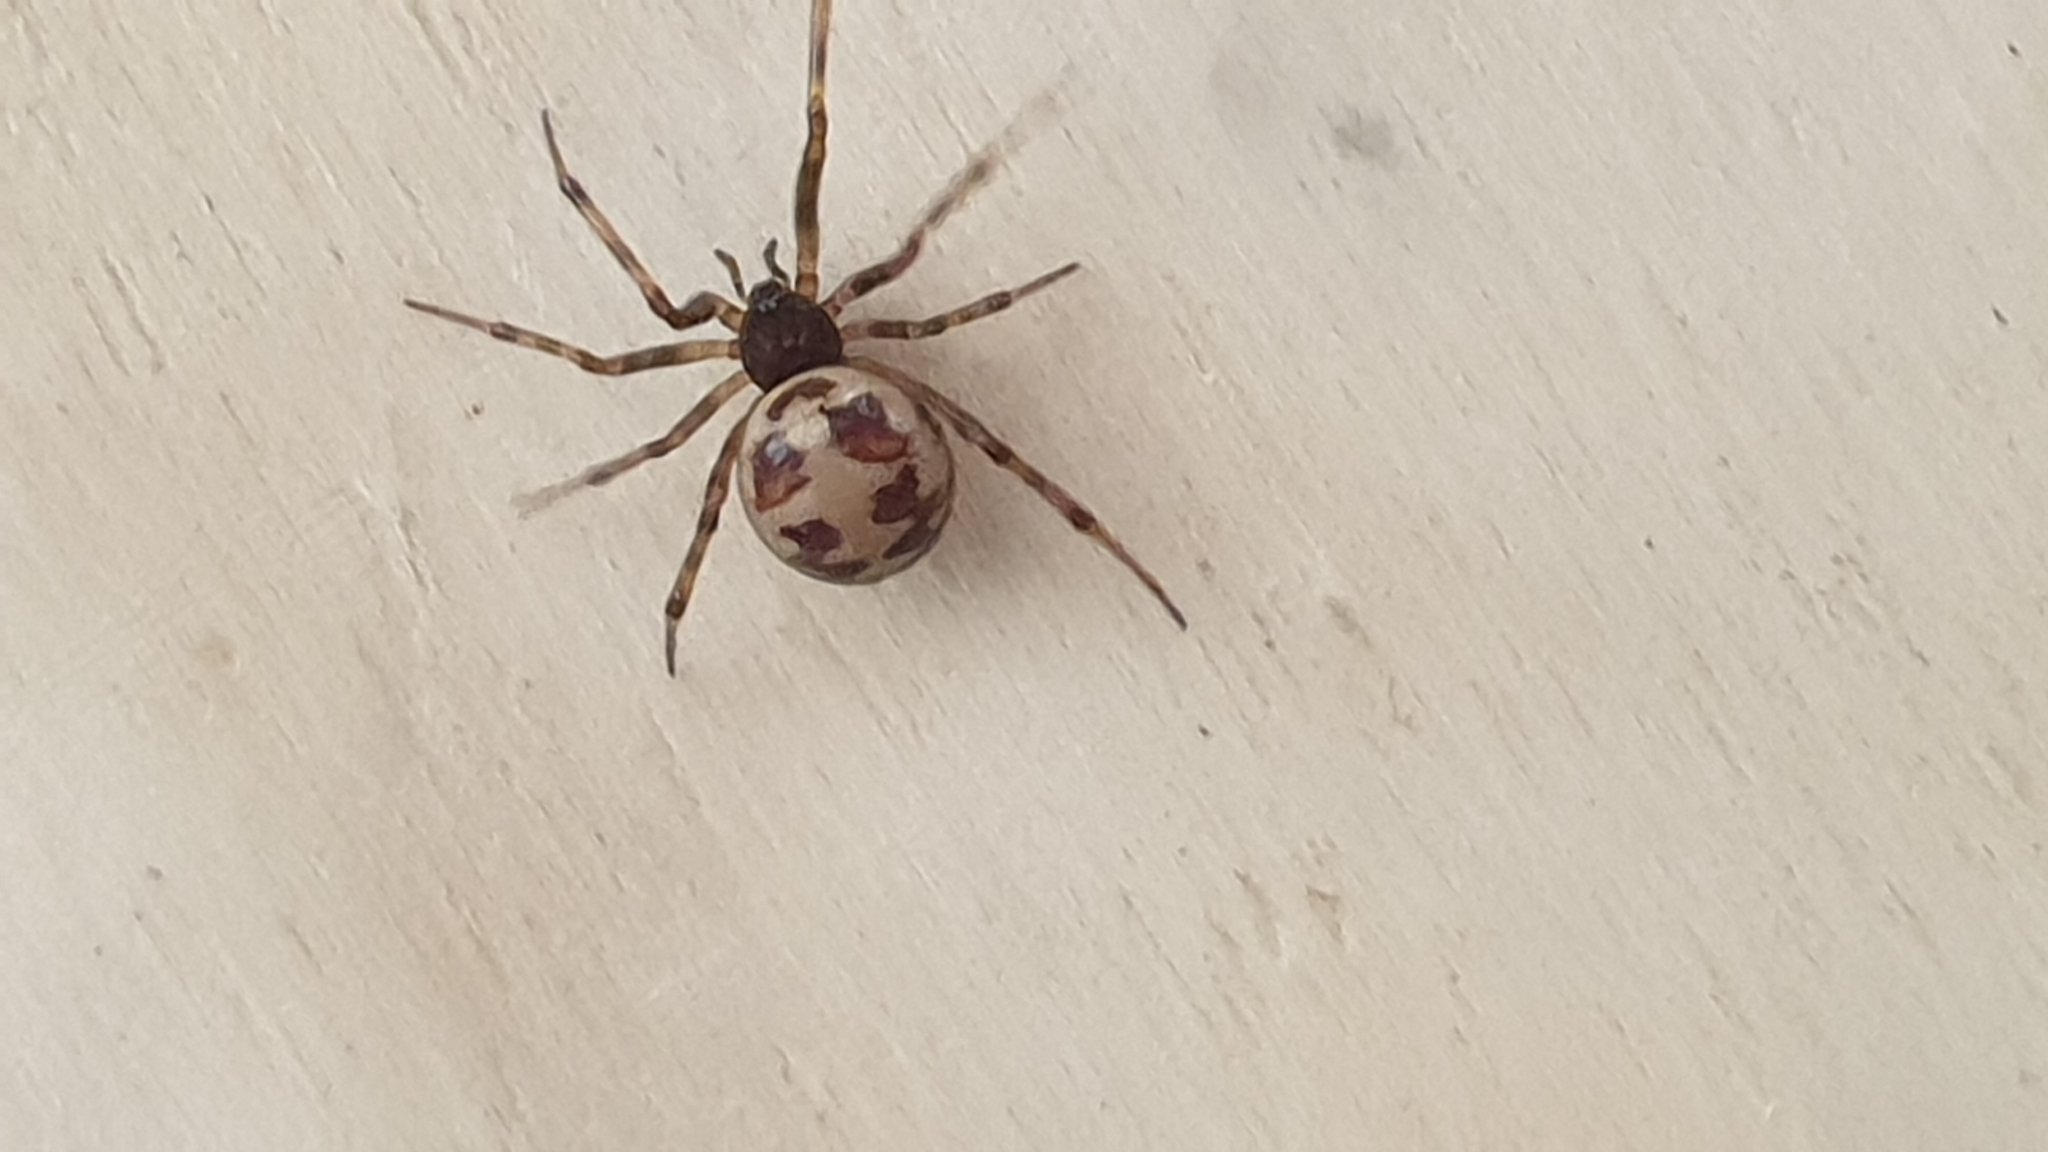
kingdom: Animalia
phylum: Arthropoda
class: Arachnida
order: Araneae
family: Theridiidae
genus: Steatoda
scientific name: Steatoda triangulosa
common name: Triangulate bud spider
